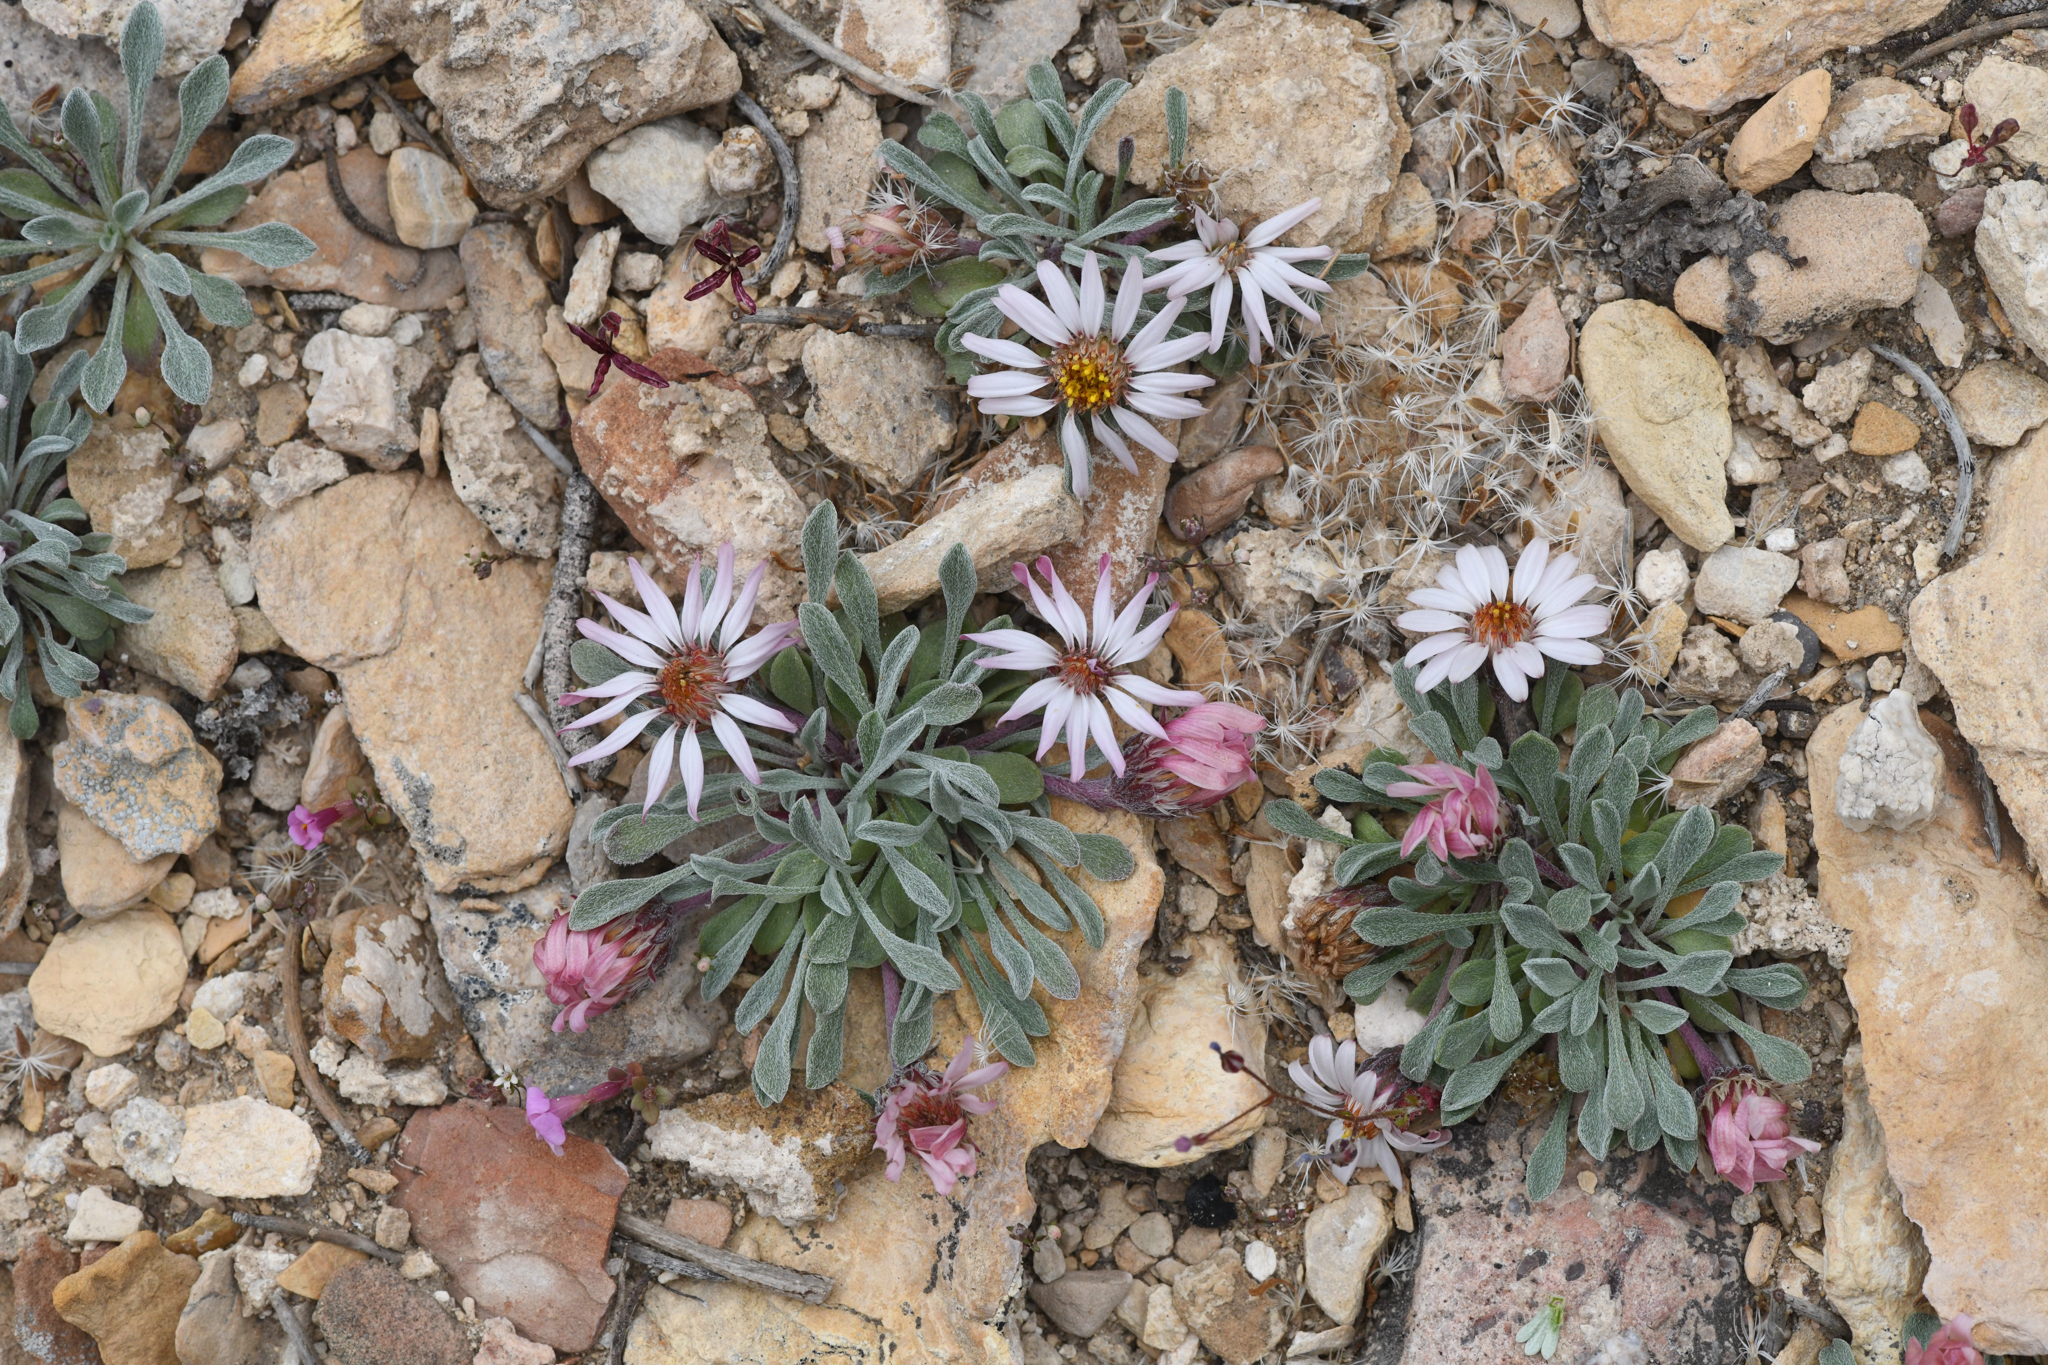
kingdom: Plantae
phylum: Tracheophyta
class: Magnoliopsida
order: Asterales
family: Asteraceae
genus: Townsendia
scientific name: Townsendia scapigera
